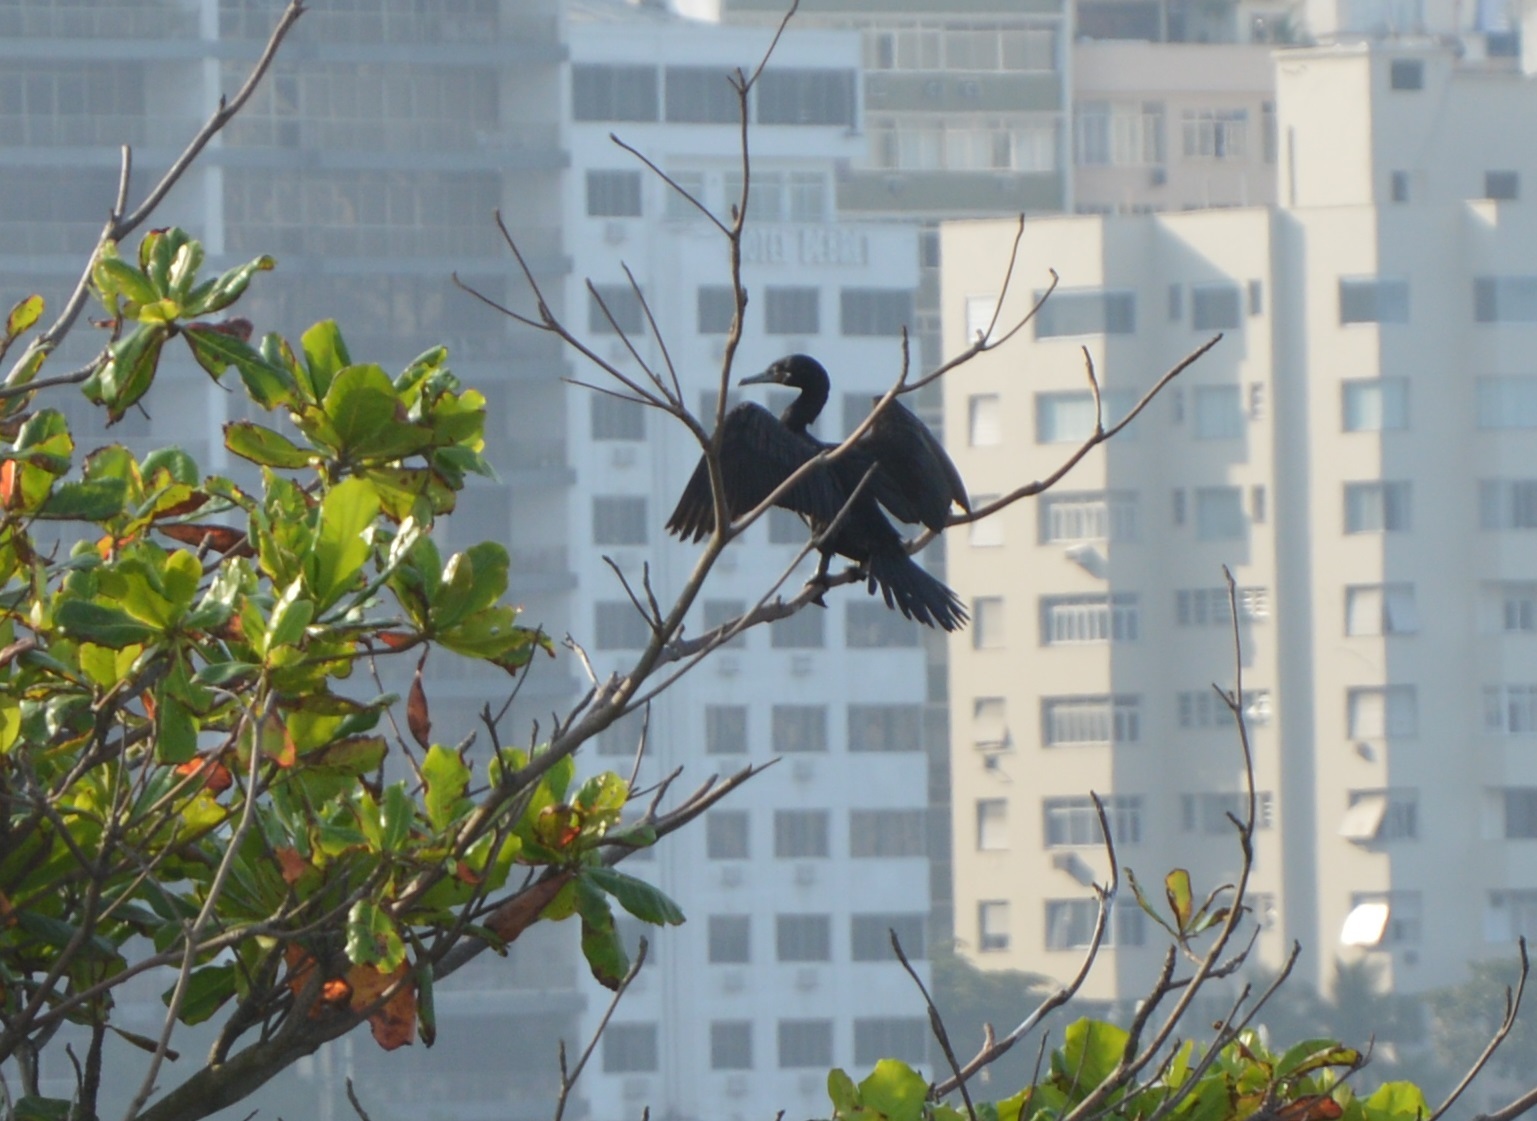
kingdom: Animalia
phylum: Chordata
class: Aves
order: Suliformes
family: Phalacrocoracidae
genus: Phalacrocorax
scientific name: Phalacrocorax brasilianus
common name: Neotropic cormorant
